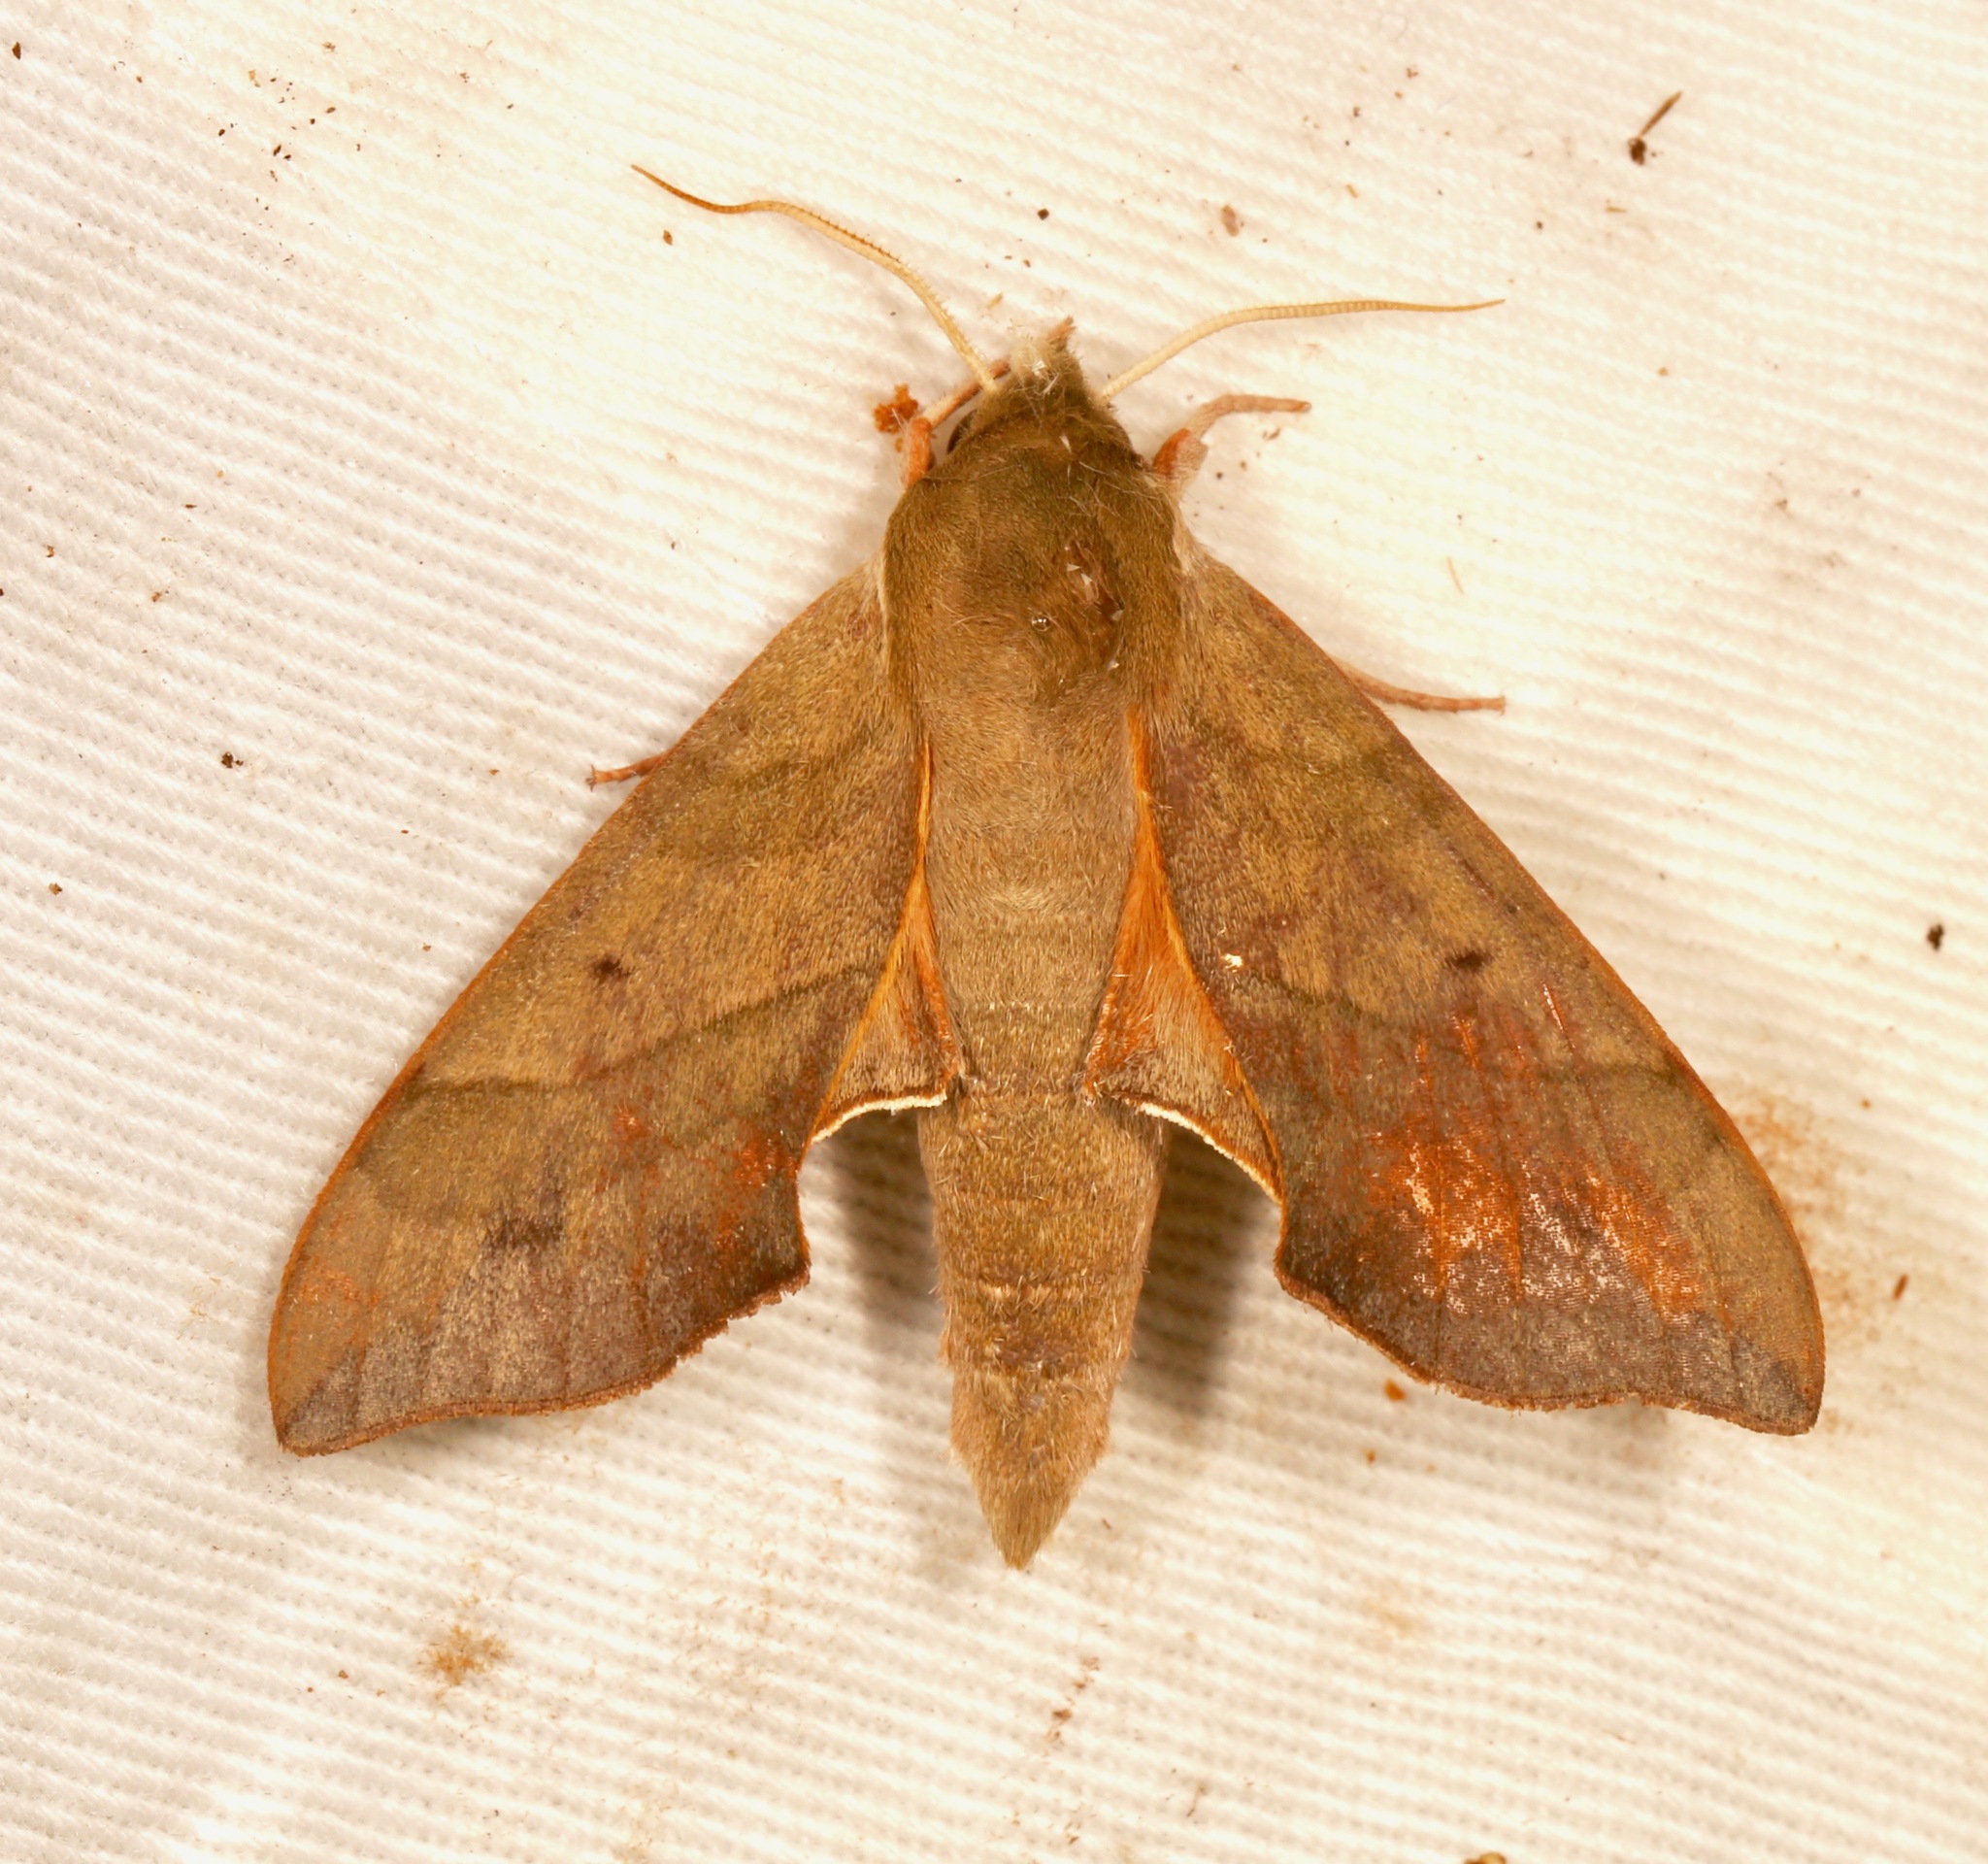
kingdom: Animalia
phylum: Arthropoda
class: Insecta
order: Lepidoptera
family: Sphingidae
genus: Darapsa
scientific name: Darapsa myron
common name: Hog sphinx
